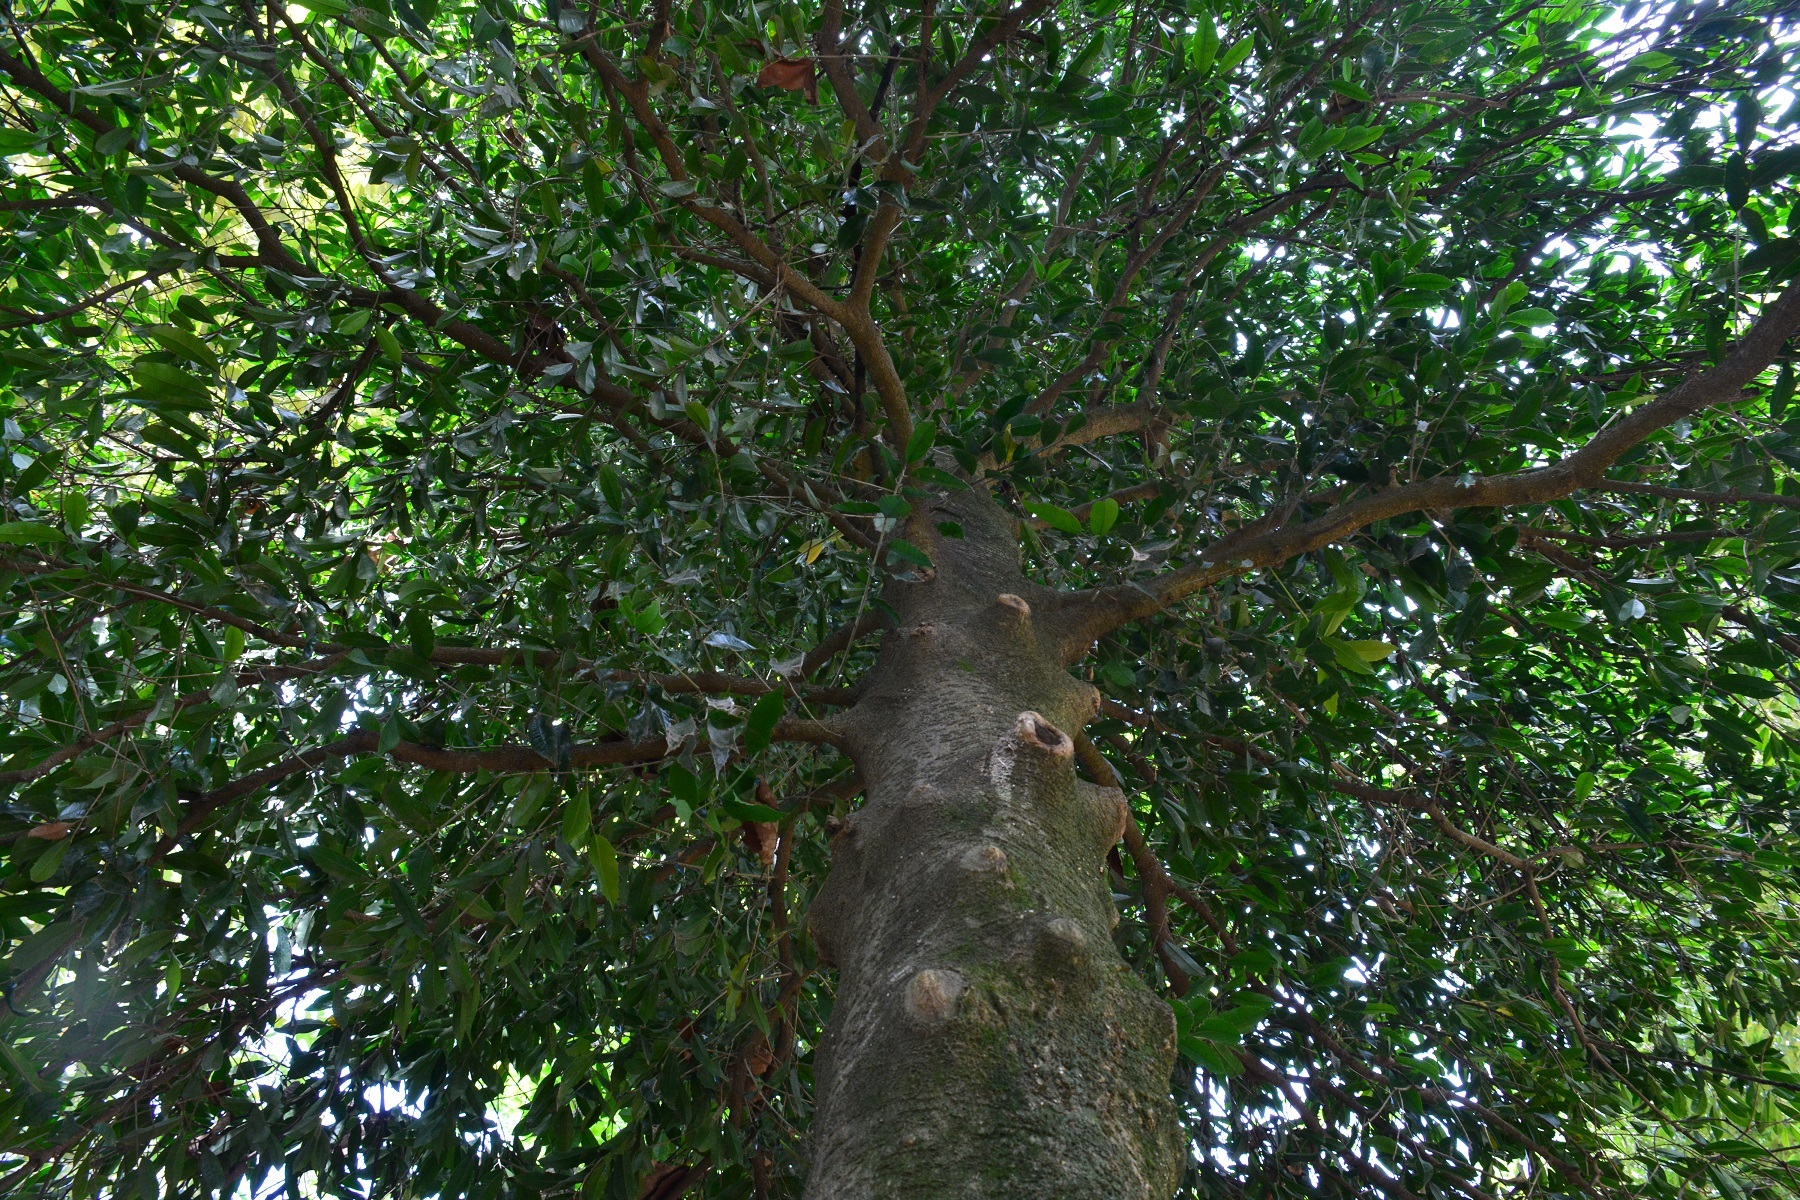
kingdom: Plantae
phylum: Tracheophyta
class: Magnoliopsida
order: Malpighiales
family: Salicaceae
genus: Olmediella
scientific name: Olmediella betschleriana
